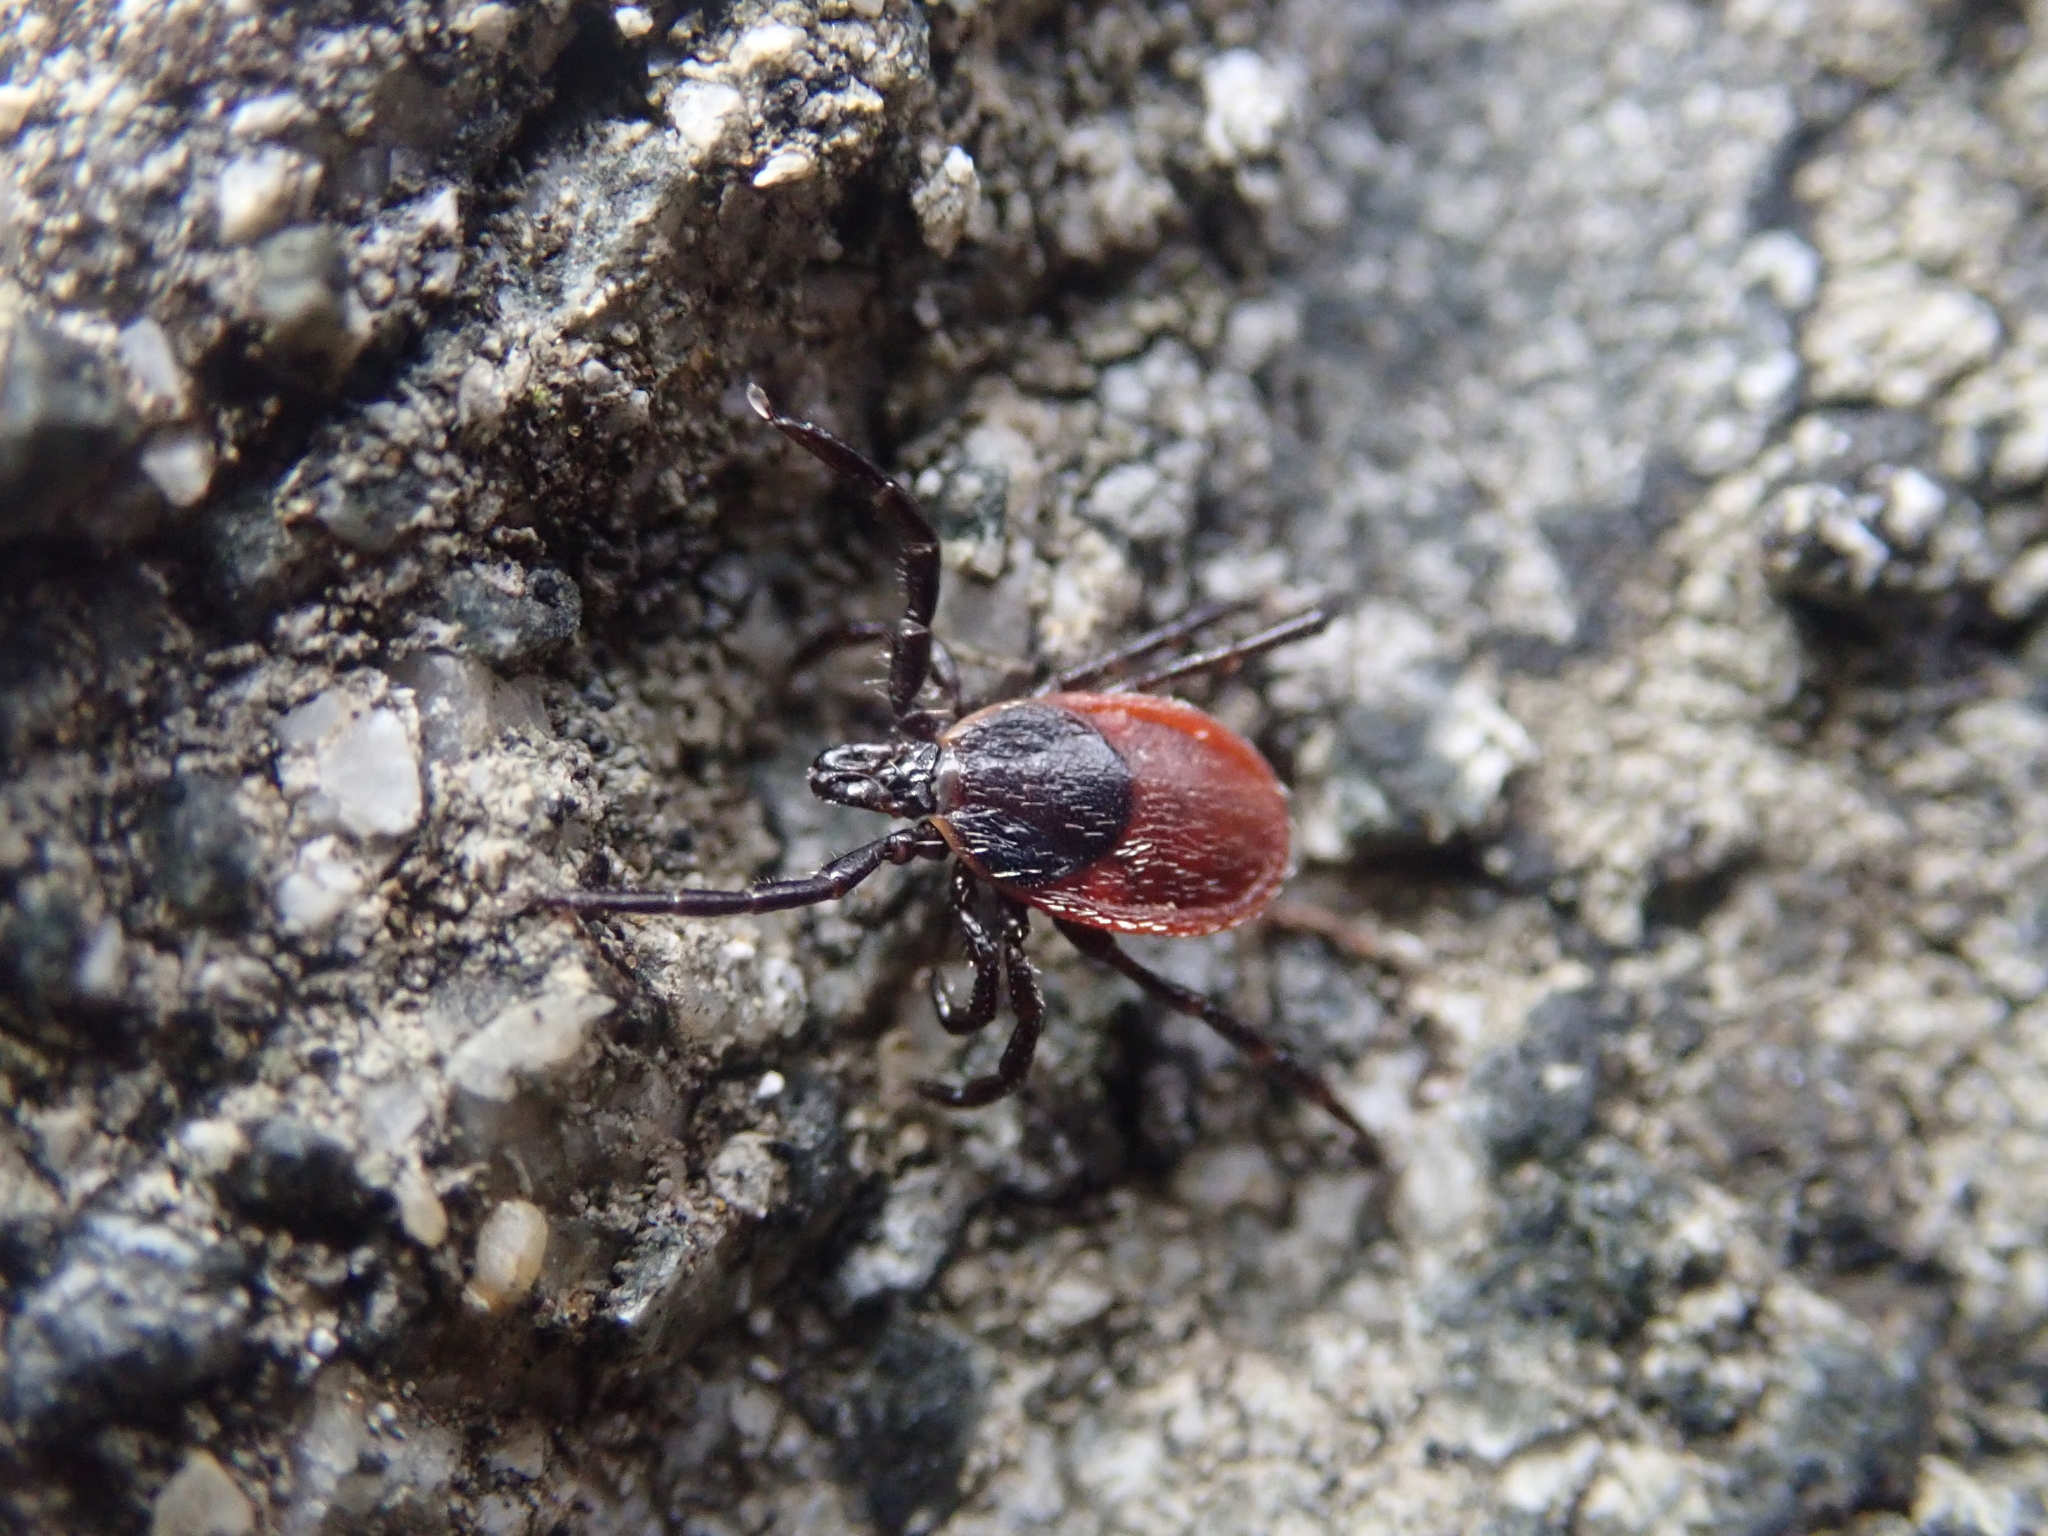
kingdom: Animalia
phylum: Arthropoda
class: Arachnida
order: Ixodida
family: Ixodidae
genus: Ixodes
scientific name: Ixodes pacificus
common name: California black-legged tick
